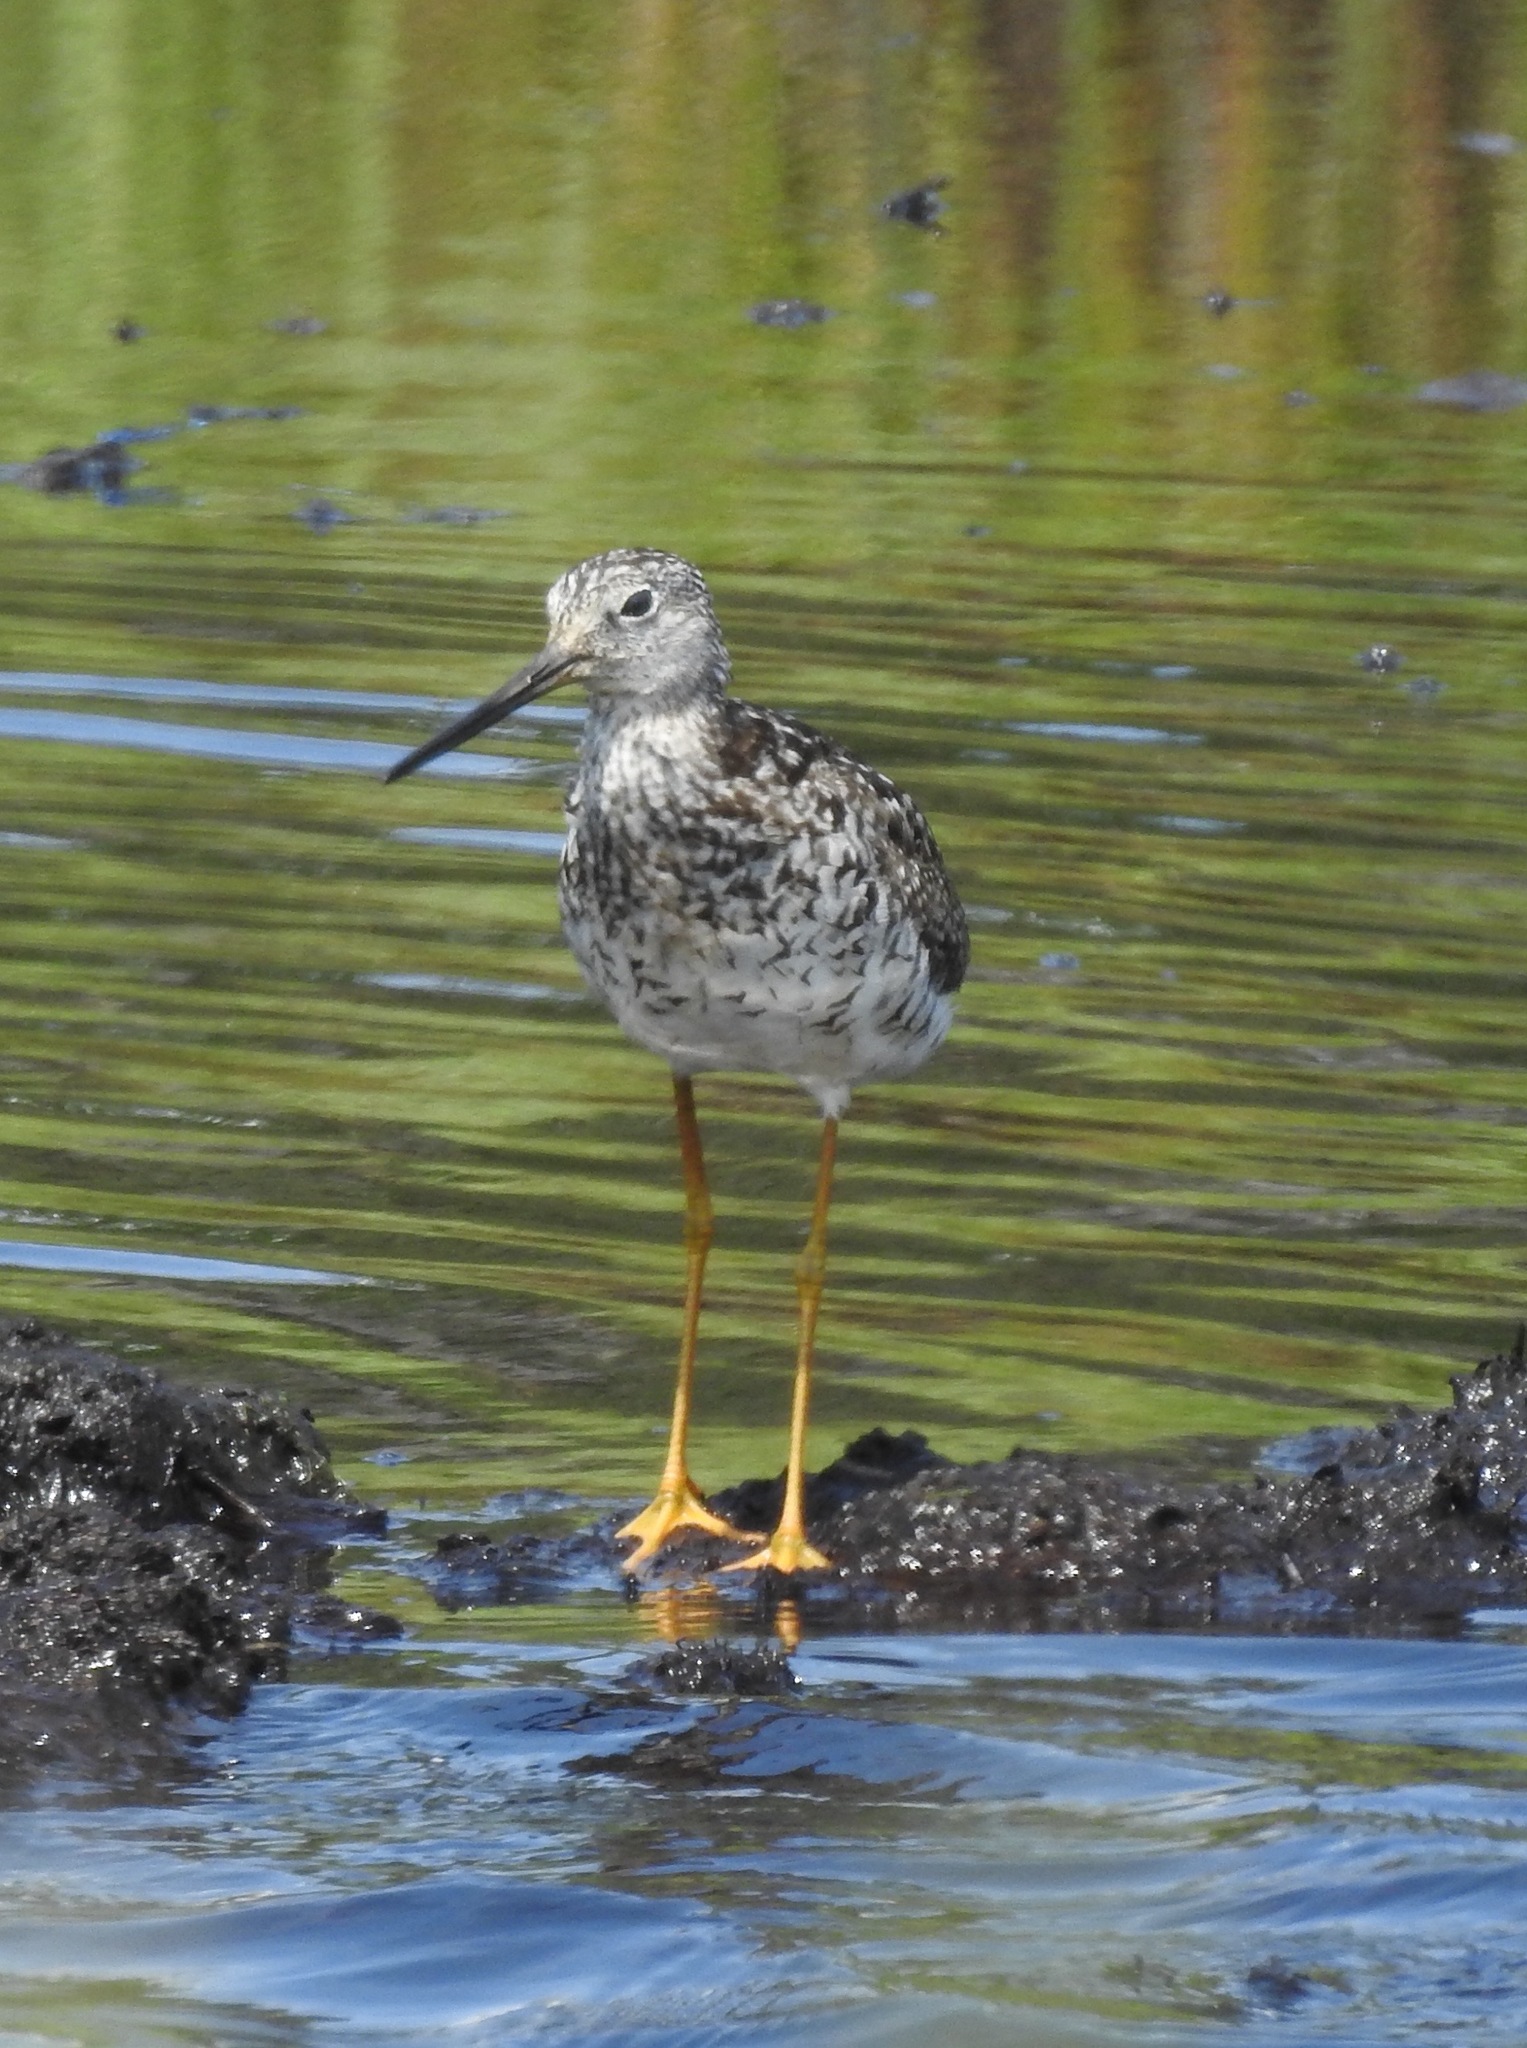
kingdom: Animalia
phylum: Chordata
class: Aves
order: Charadriiformes
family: Scolopacidae
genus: Tringa
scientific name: Tringa melanoleuca
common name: Greater yellowlegs
